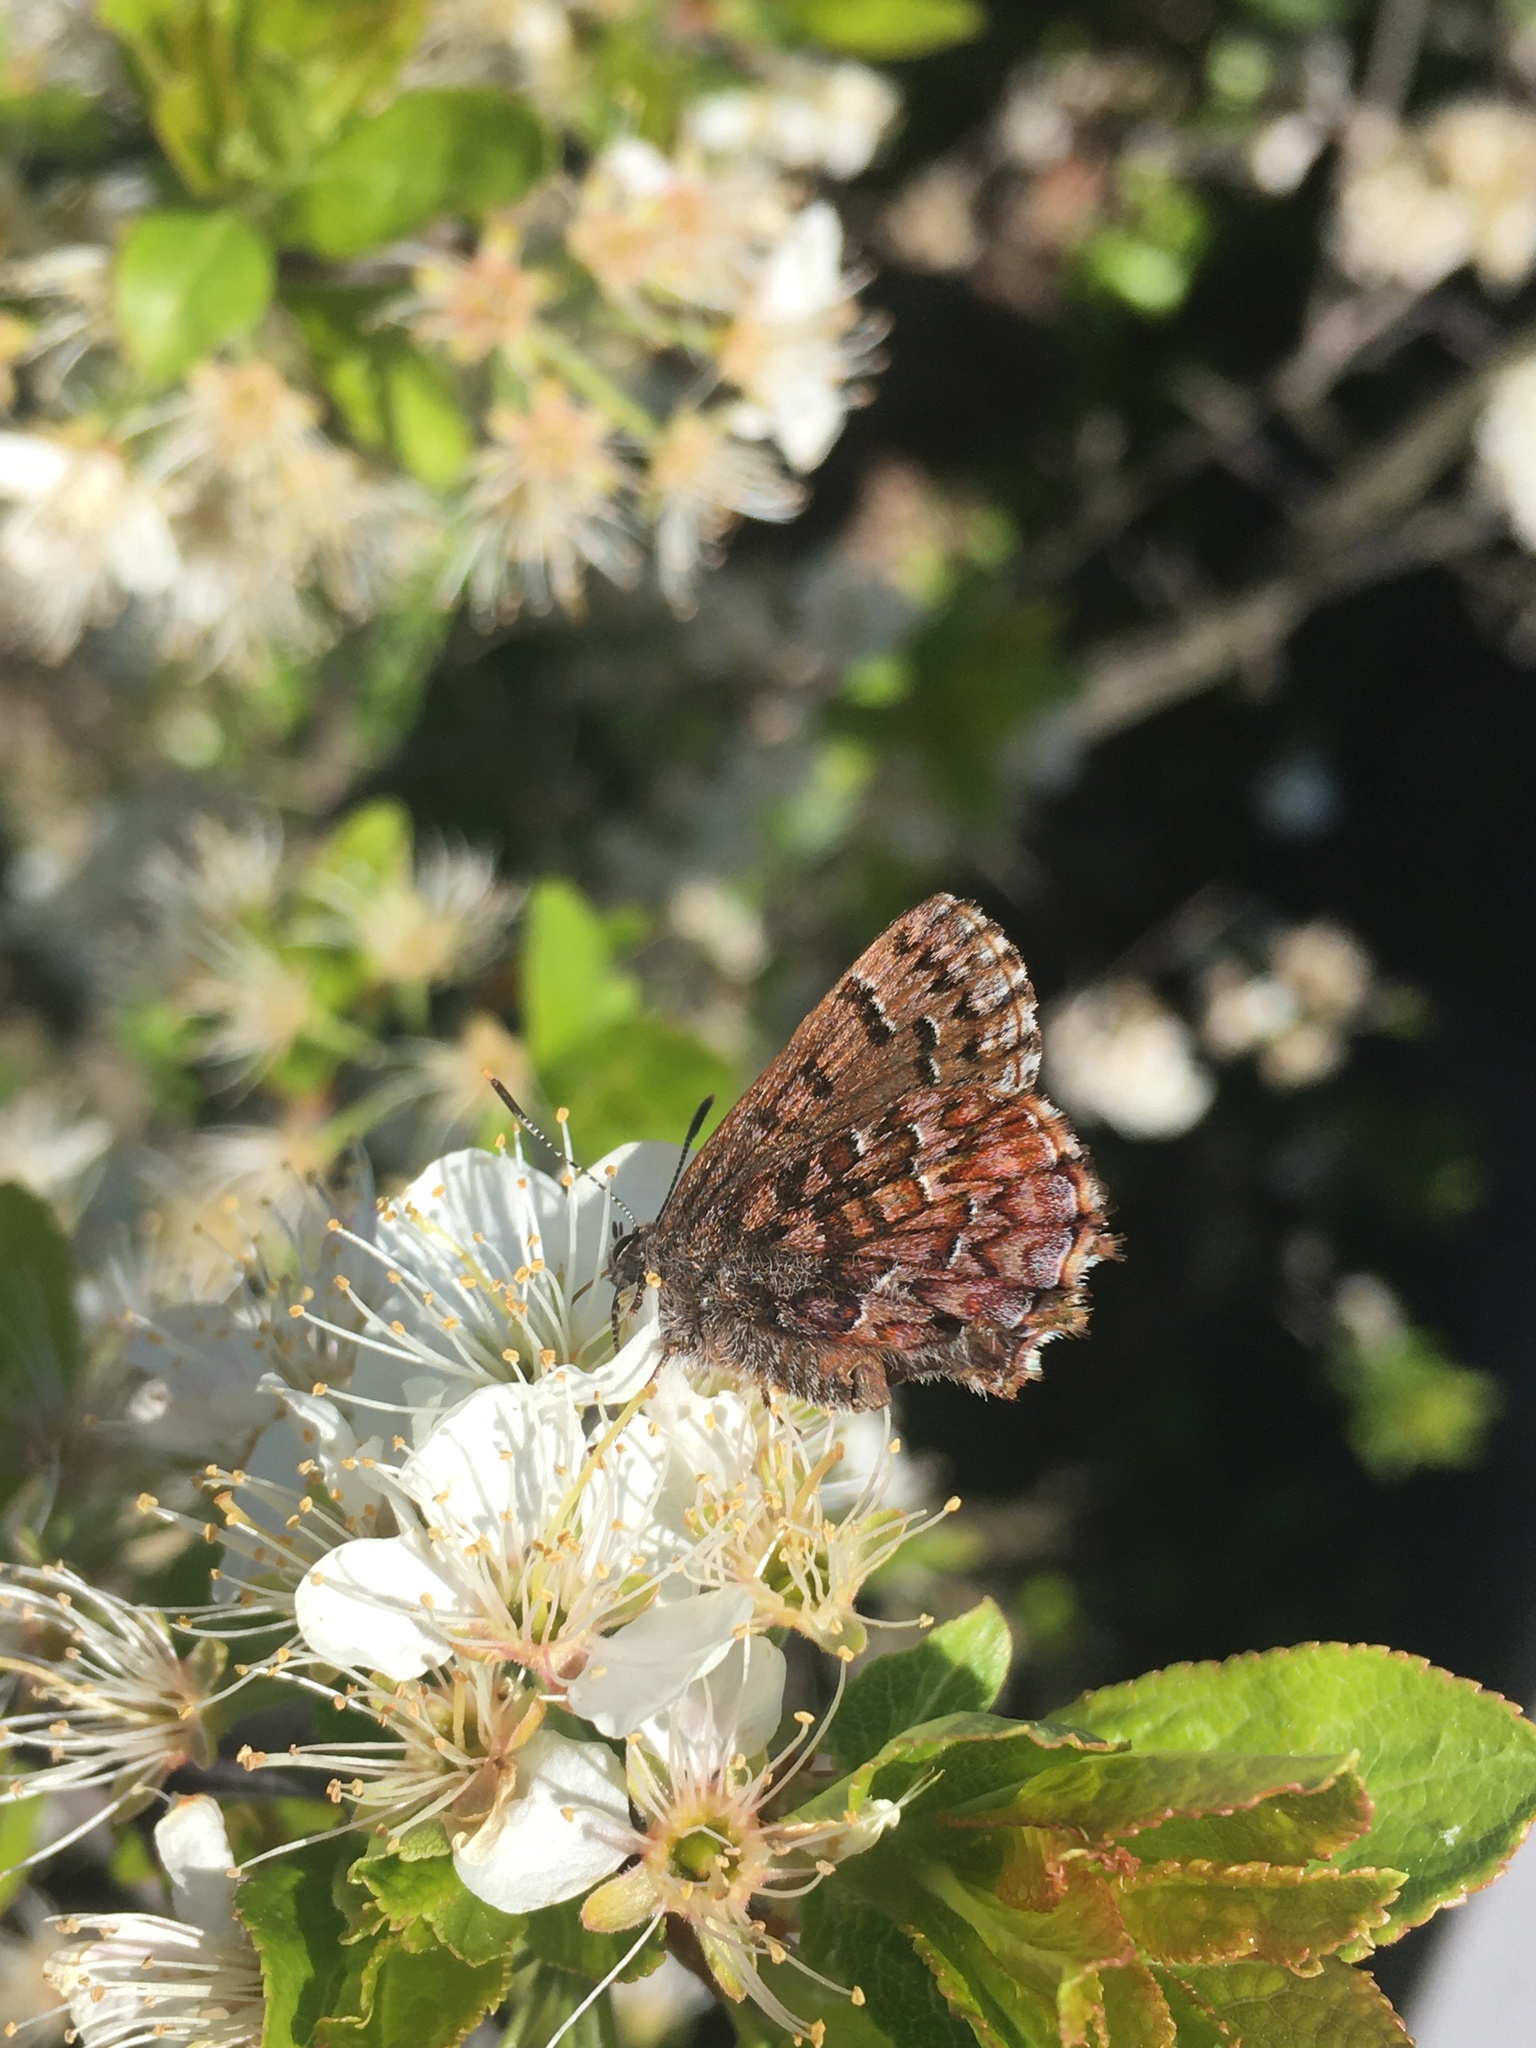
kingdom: Animalia
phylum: Arthropoda
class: Insecta
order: Lepidoptera
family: Lycaenidae
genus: Incisalia
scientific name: Incisalia niphon
